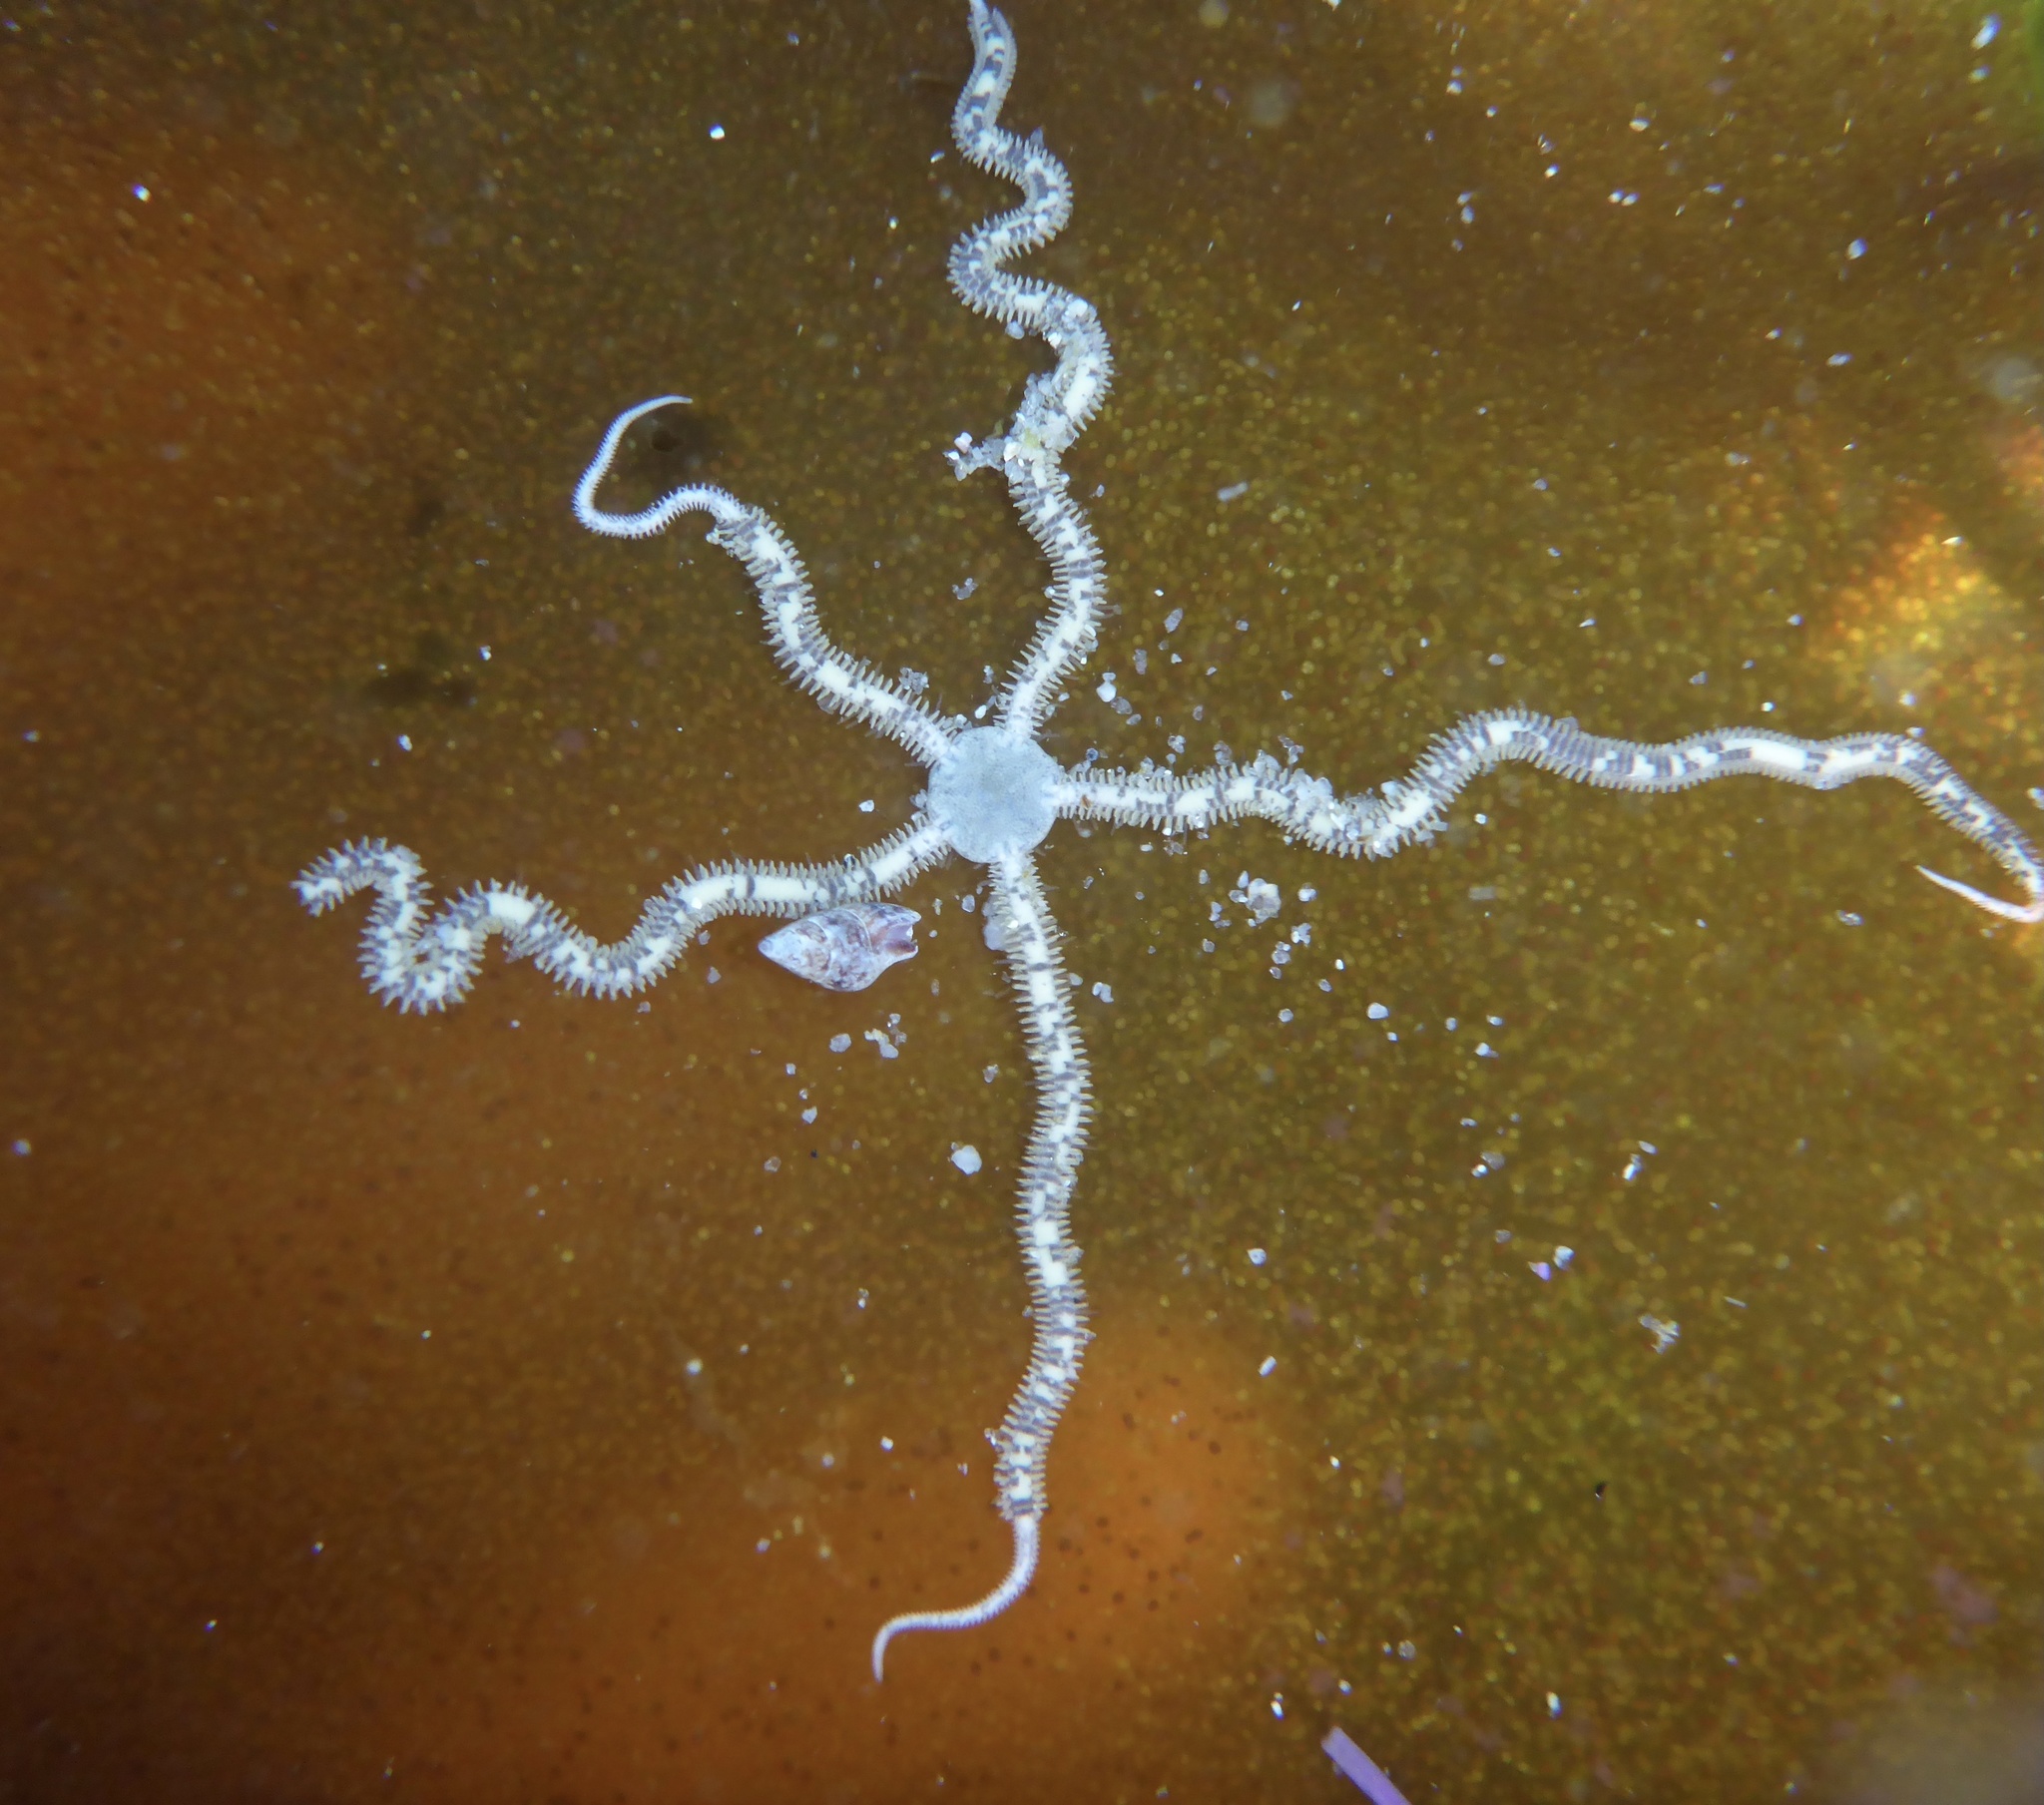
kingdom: Animalia
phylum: Echinodermata
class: Ophiuroidea
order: Amphilepidida
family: Amphiuridae
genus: Amphiodia
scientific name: Amphiodia occidentalis
